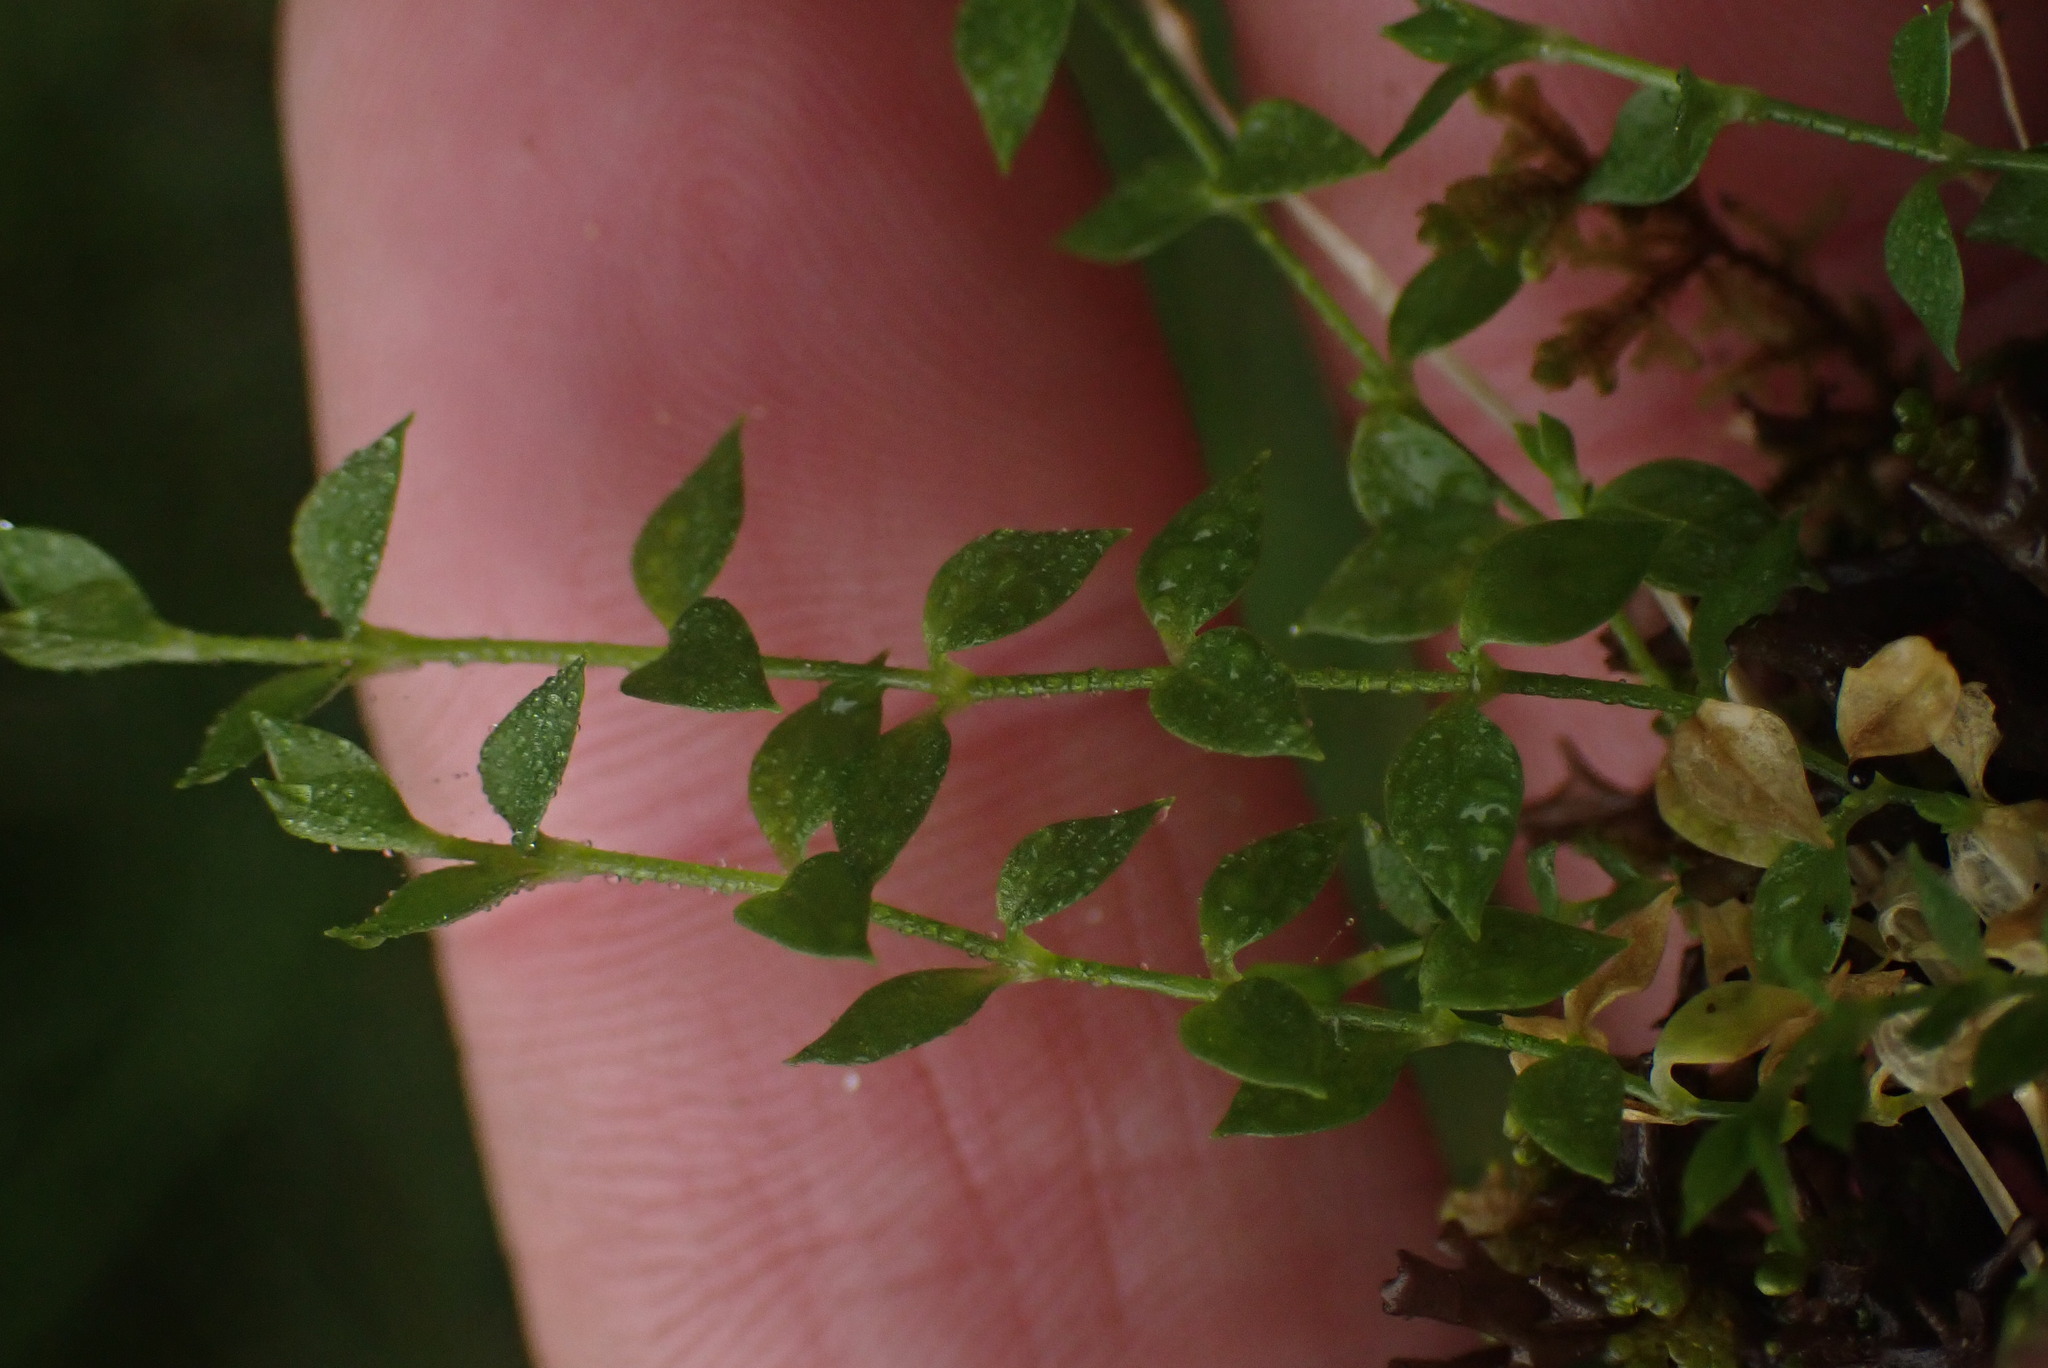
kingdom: Plantae
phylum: Tracheophyta
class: Magnoliopsida
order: Caryophyllales
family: Caryophyllaceae
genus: Stellaria
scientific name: Stellaria crispa
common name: Crimped stitchwort
